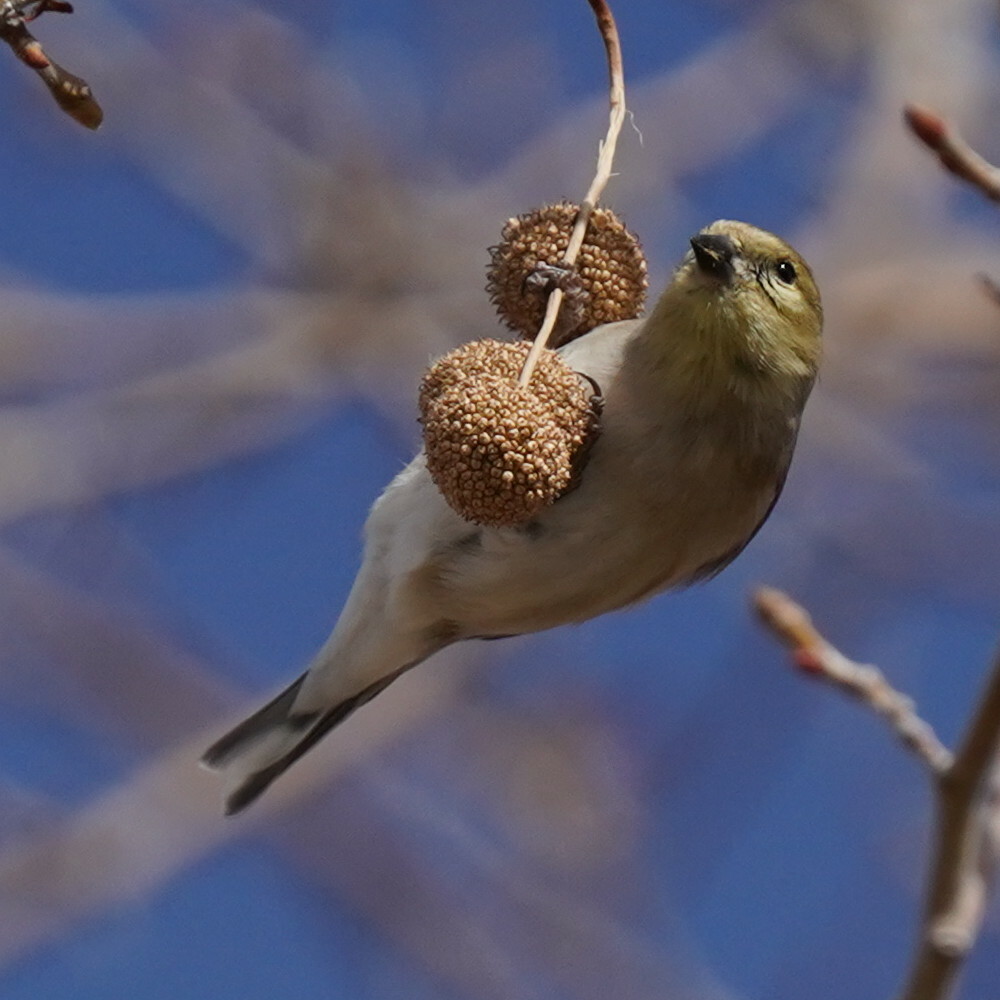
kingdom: Animalia
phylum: Chordata
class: Aves
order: Passeriformes
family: Fringillidae
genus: Spinus
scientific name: Spinus tristis
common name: American goldfinch
